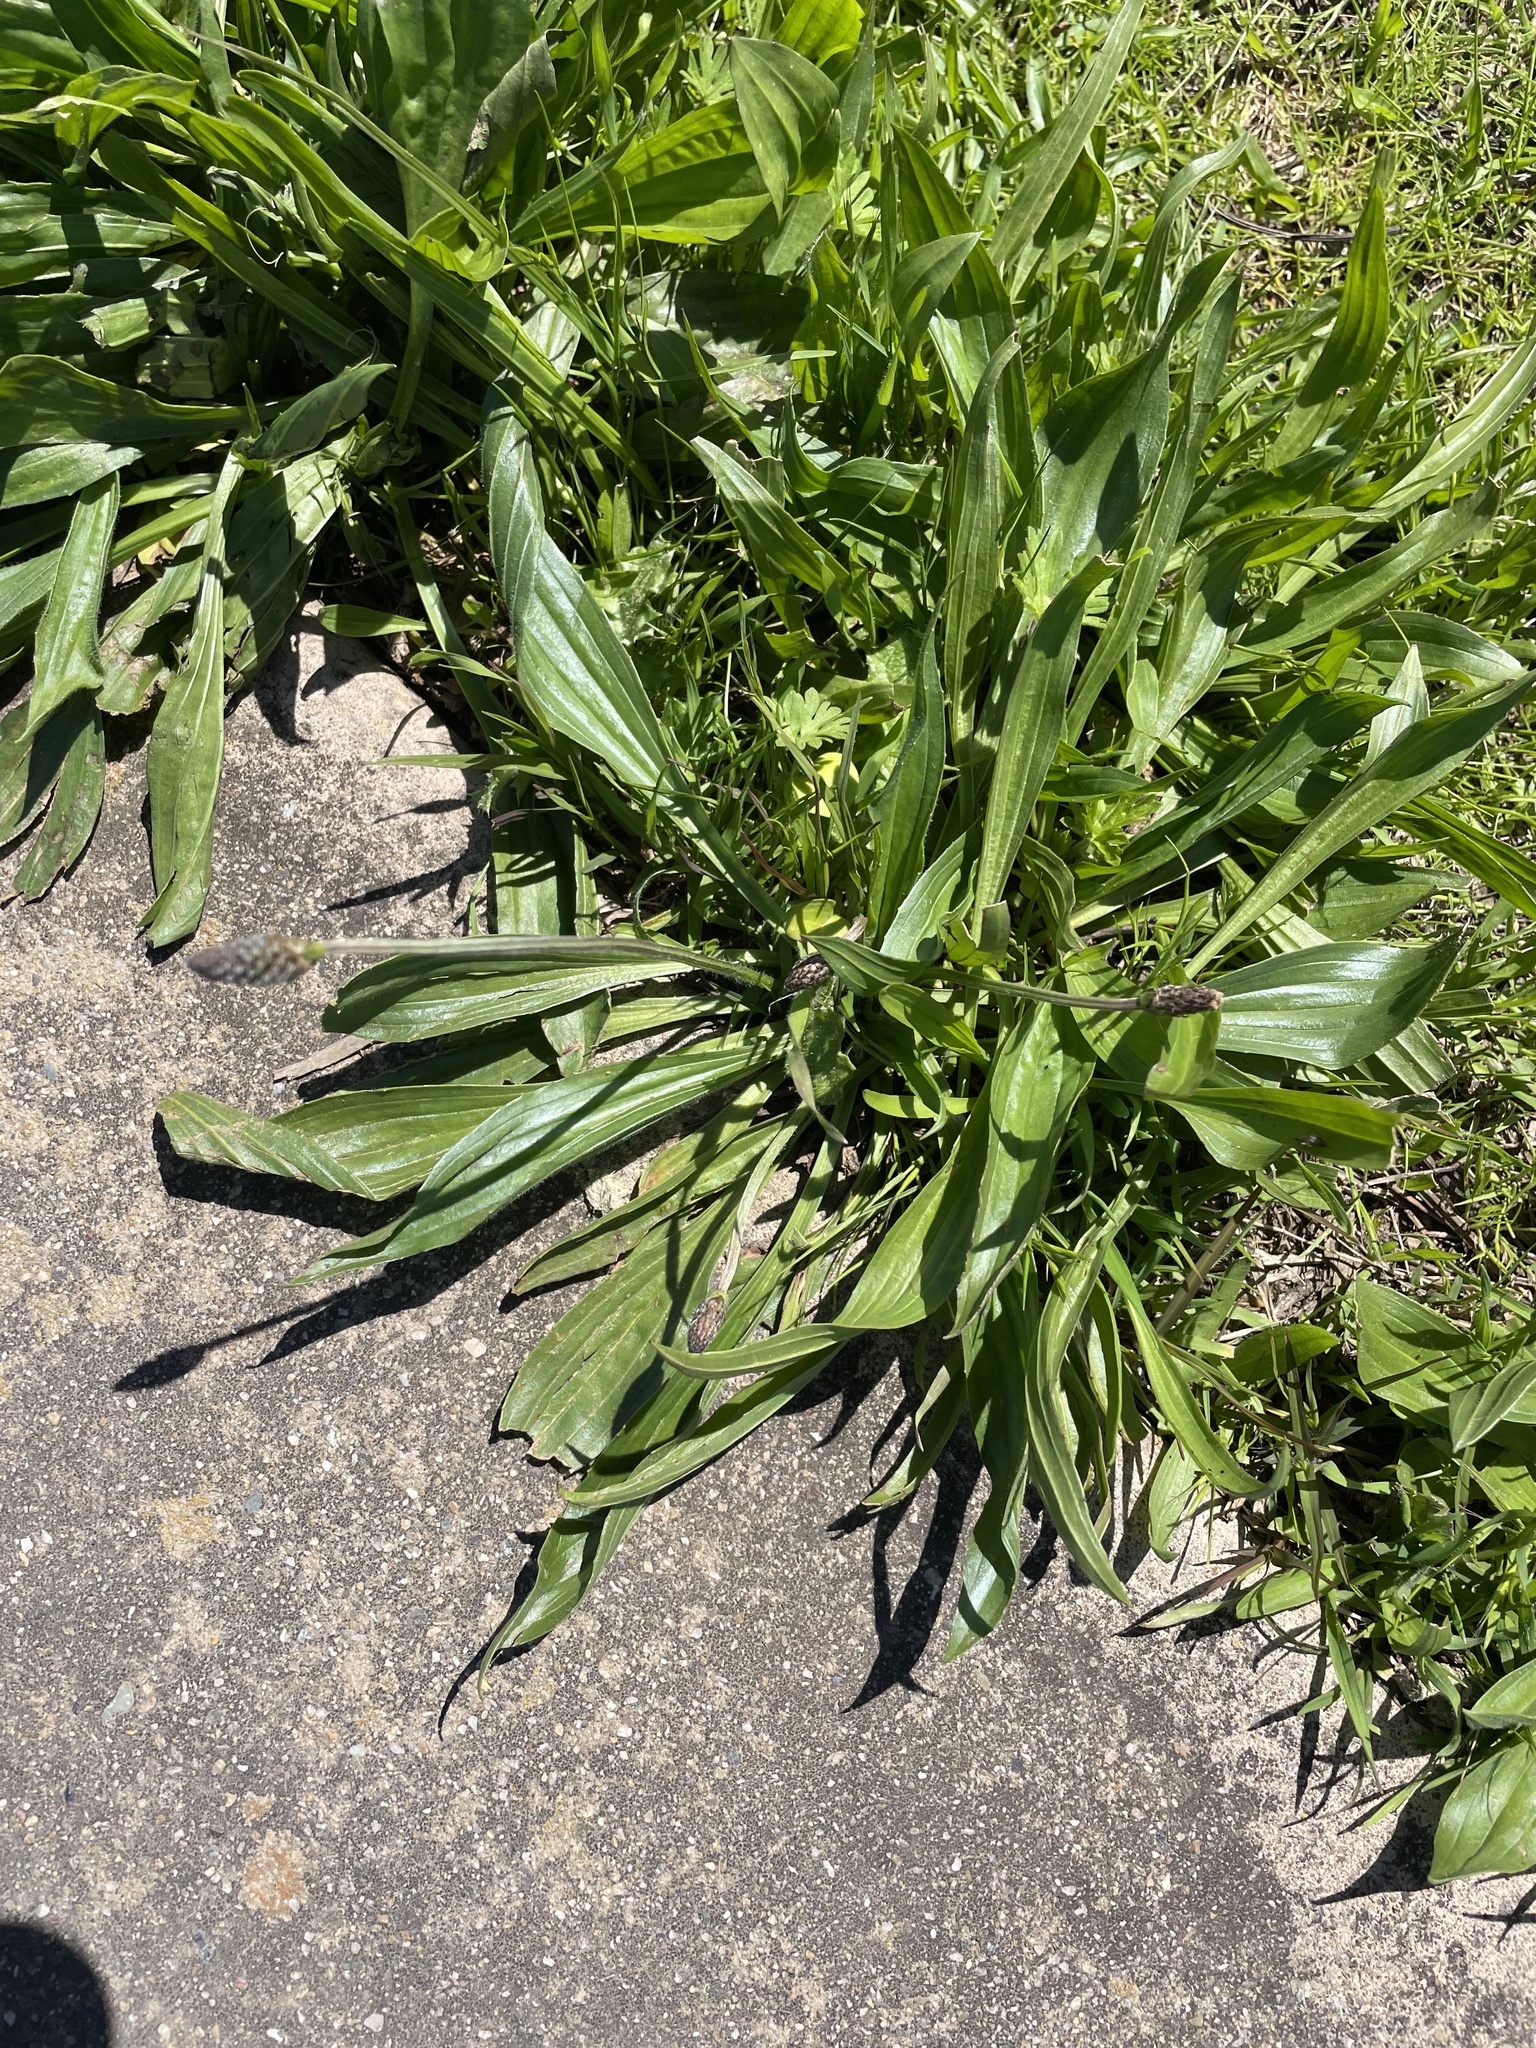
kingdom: Plantae
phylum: Tracheophyta
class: Magnoliopsida
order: Lamiales
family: Plantaginaceae
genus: Plantago
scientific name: Plantago lanceolata
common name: Ribwort plantain
